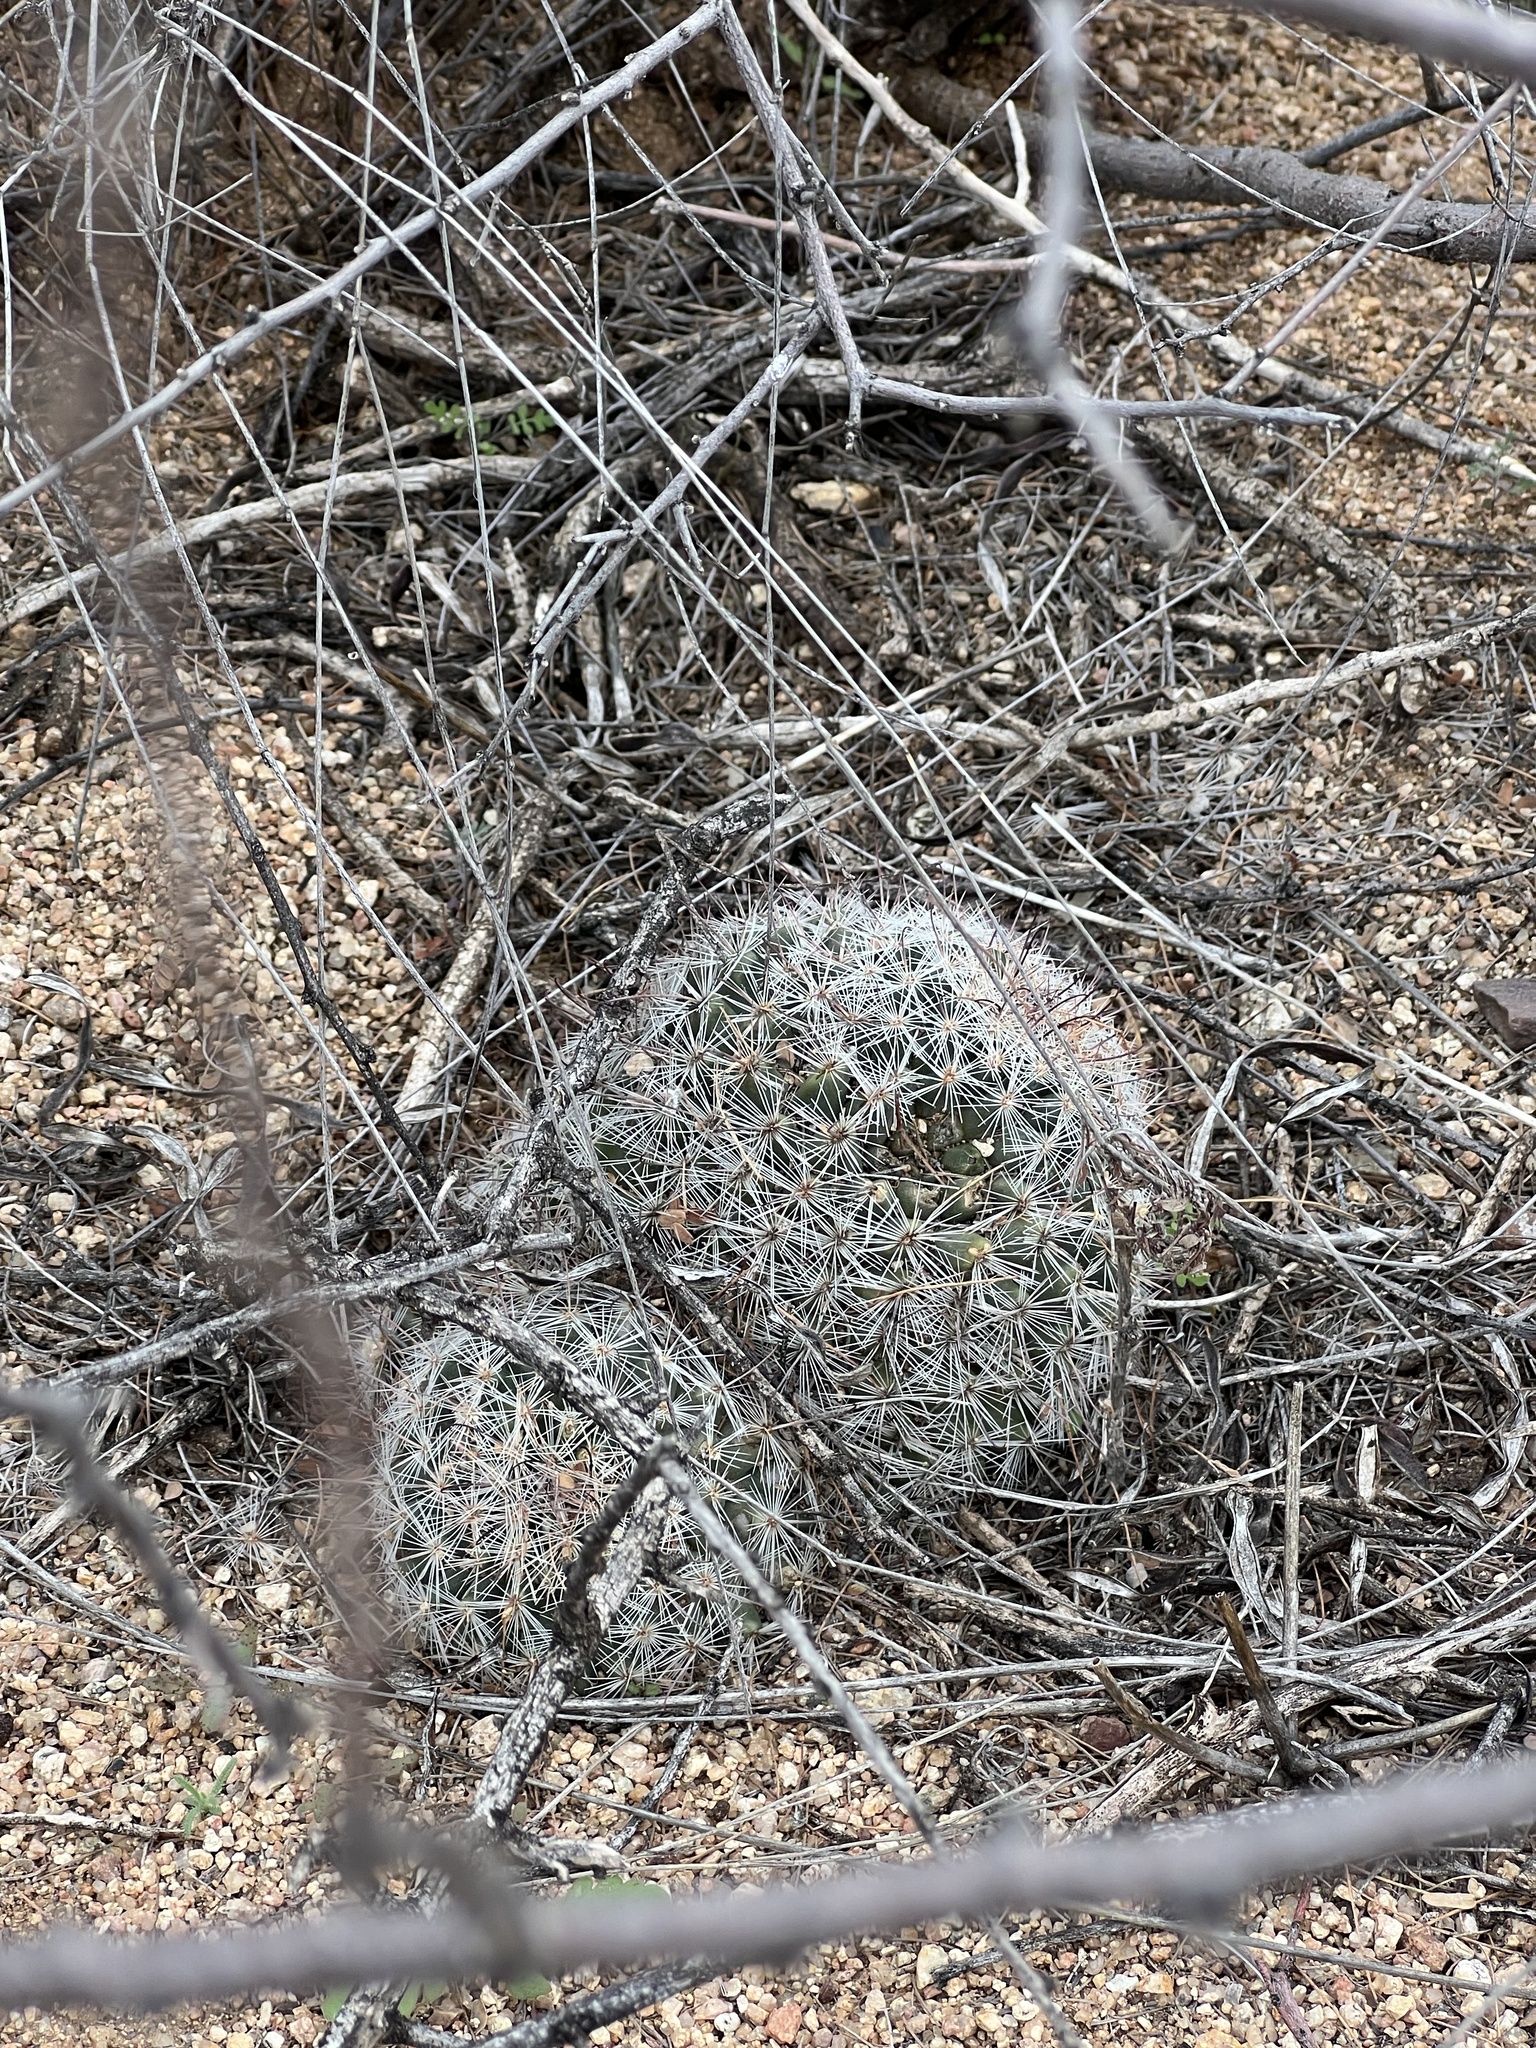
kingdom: Plantae
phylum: Tracheophyta
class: Magnoliopsida
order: Caryophyllales
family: Cactaceae
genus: Cochemiea
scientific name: Cochemiea grahamii
